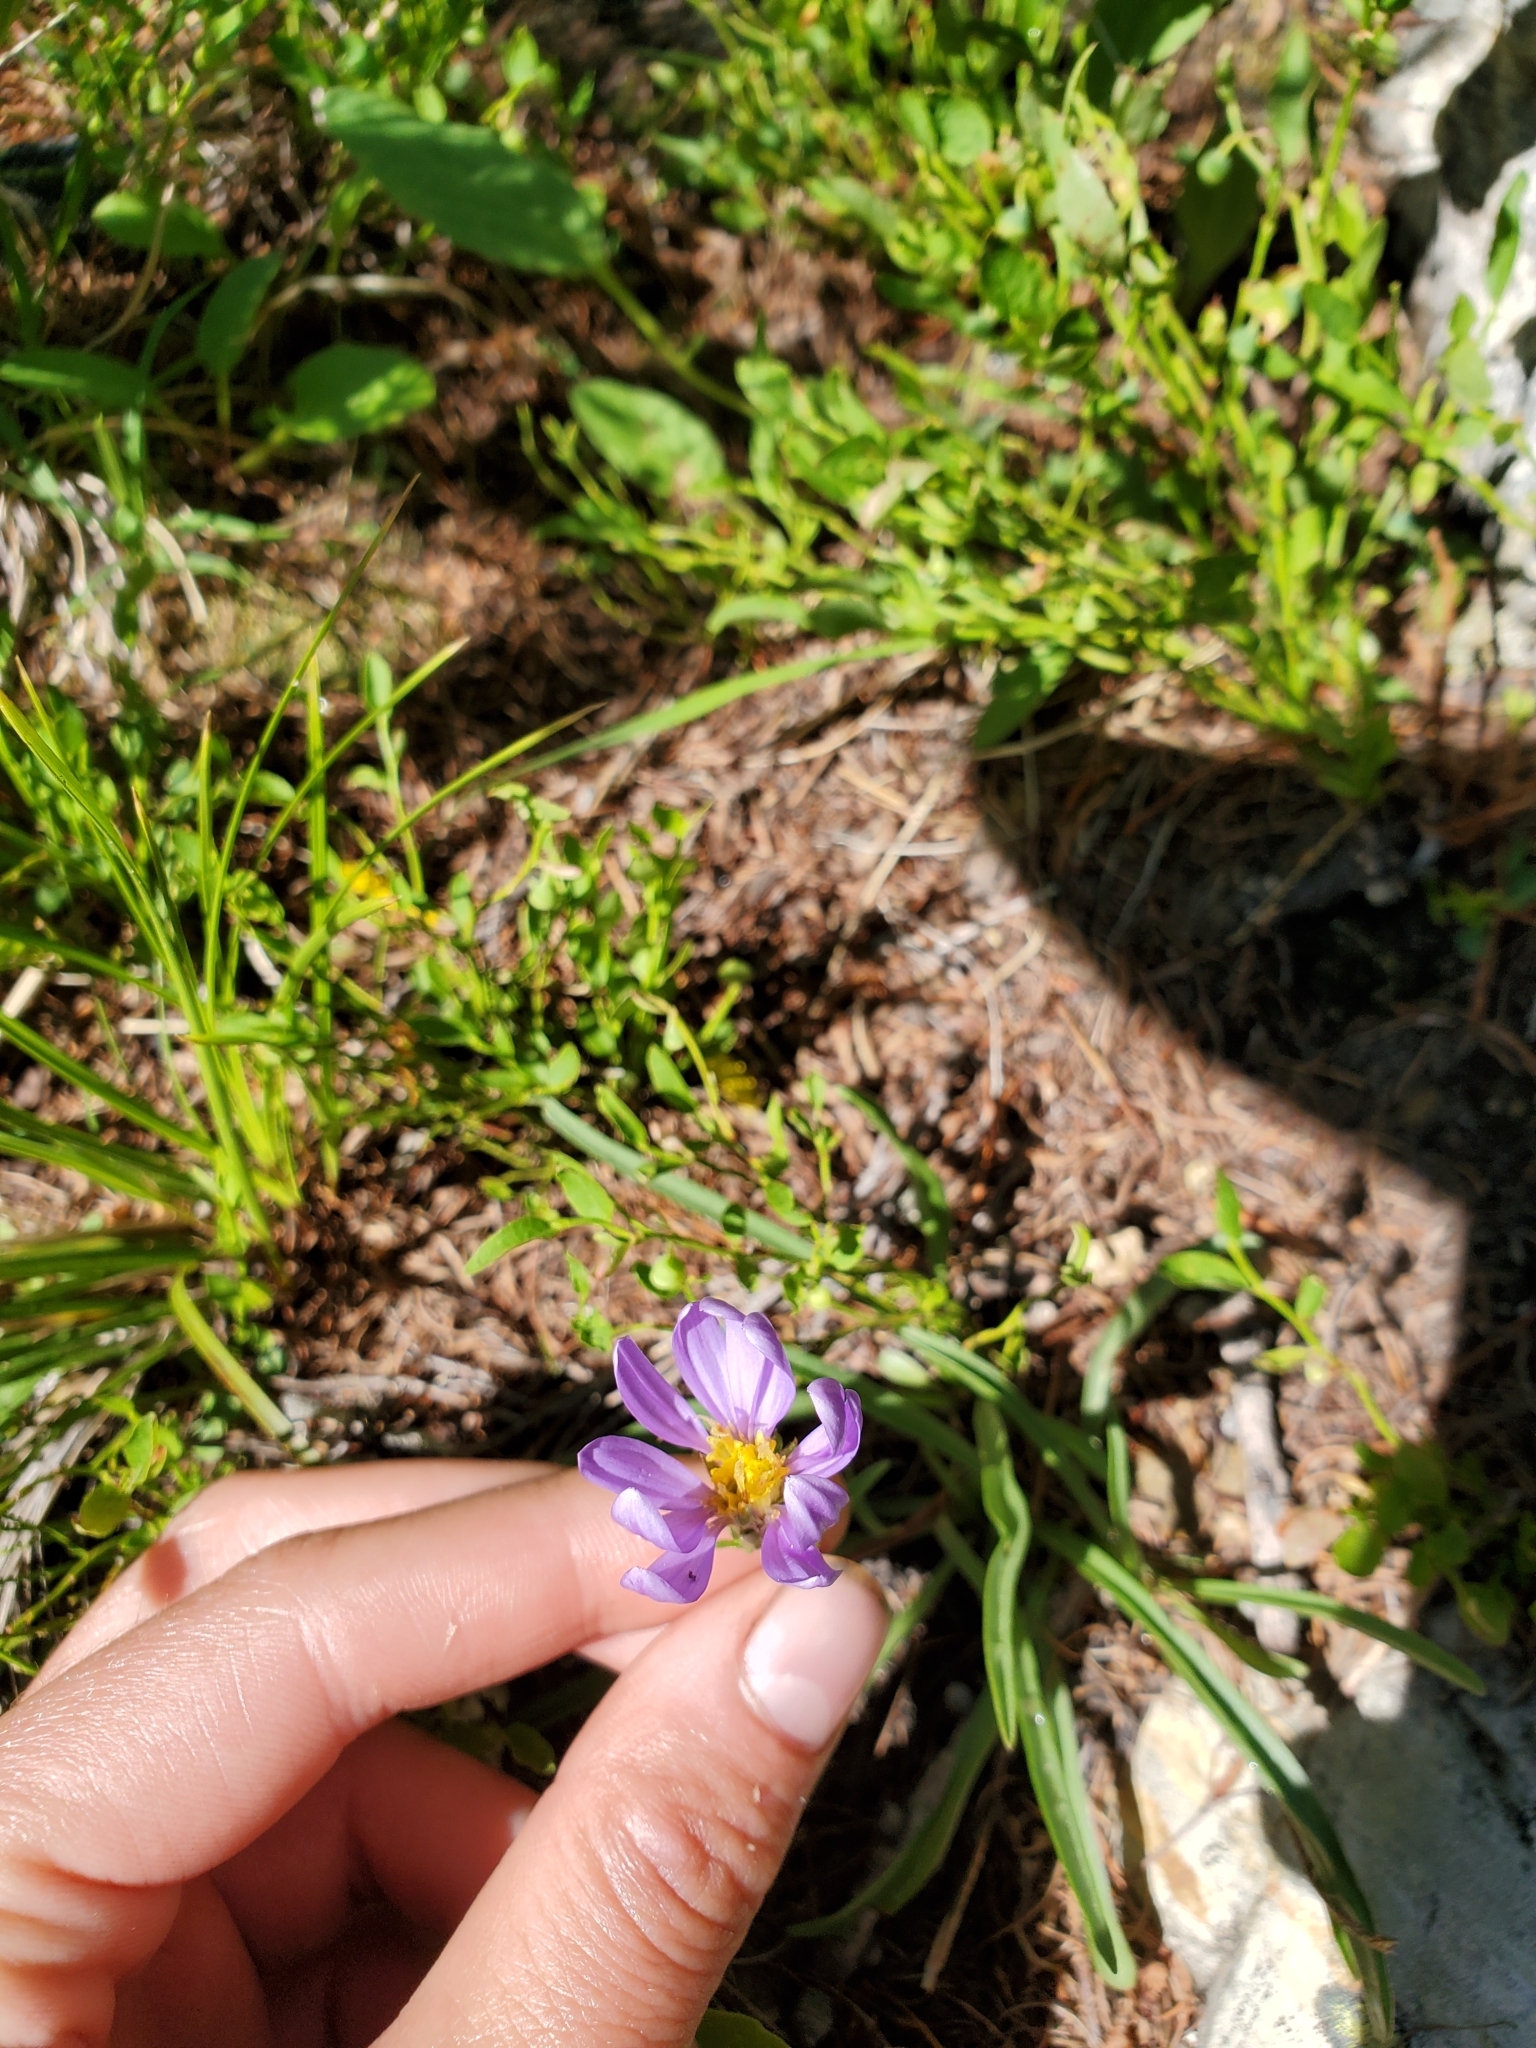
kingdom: Plantae
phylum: Tracheophyta
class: Magnoliopsida
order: Asterales
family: Asteraceae
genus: Oreostemma
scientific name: Oreostemma alpigenum
